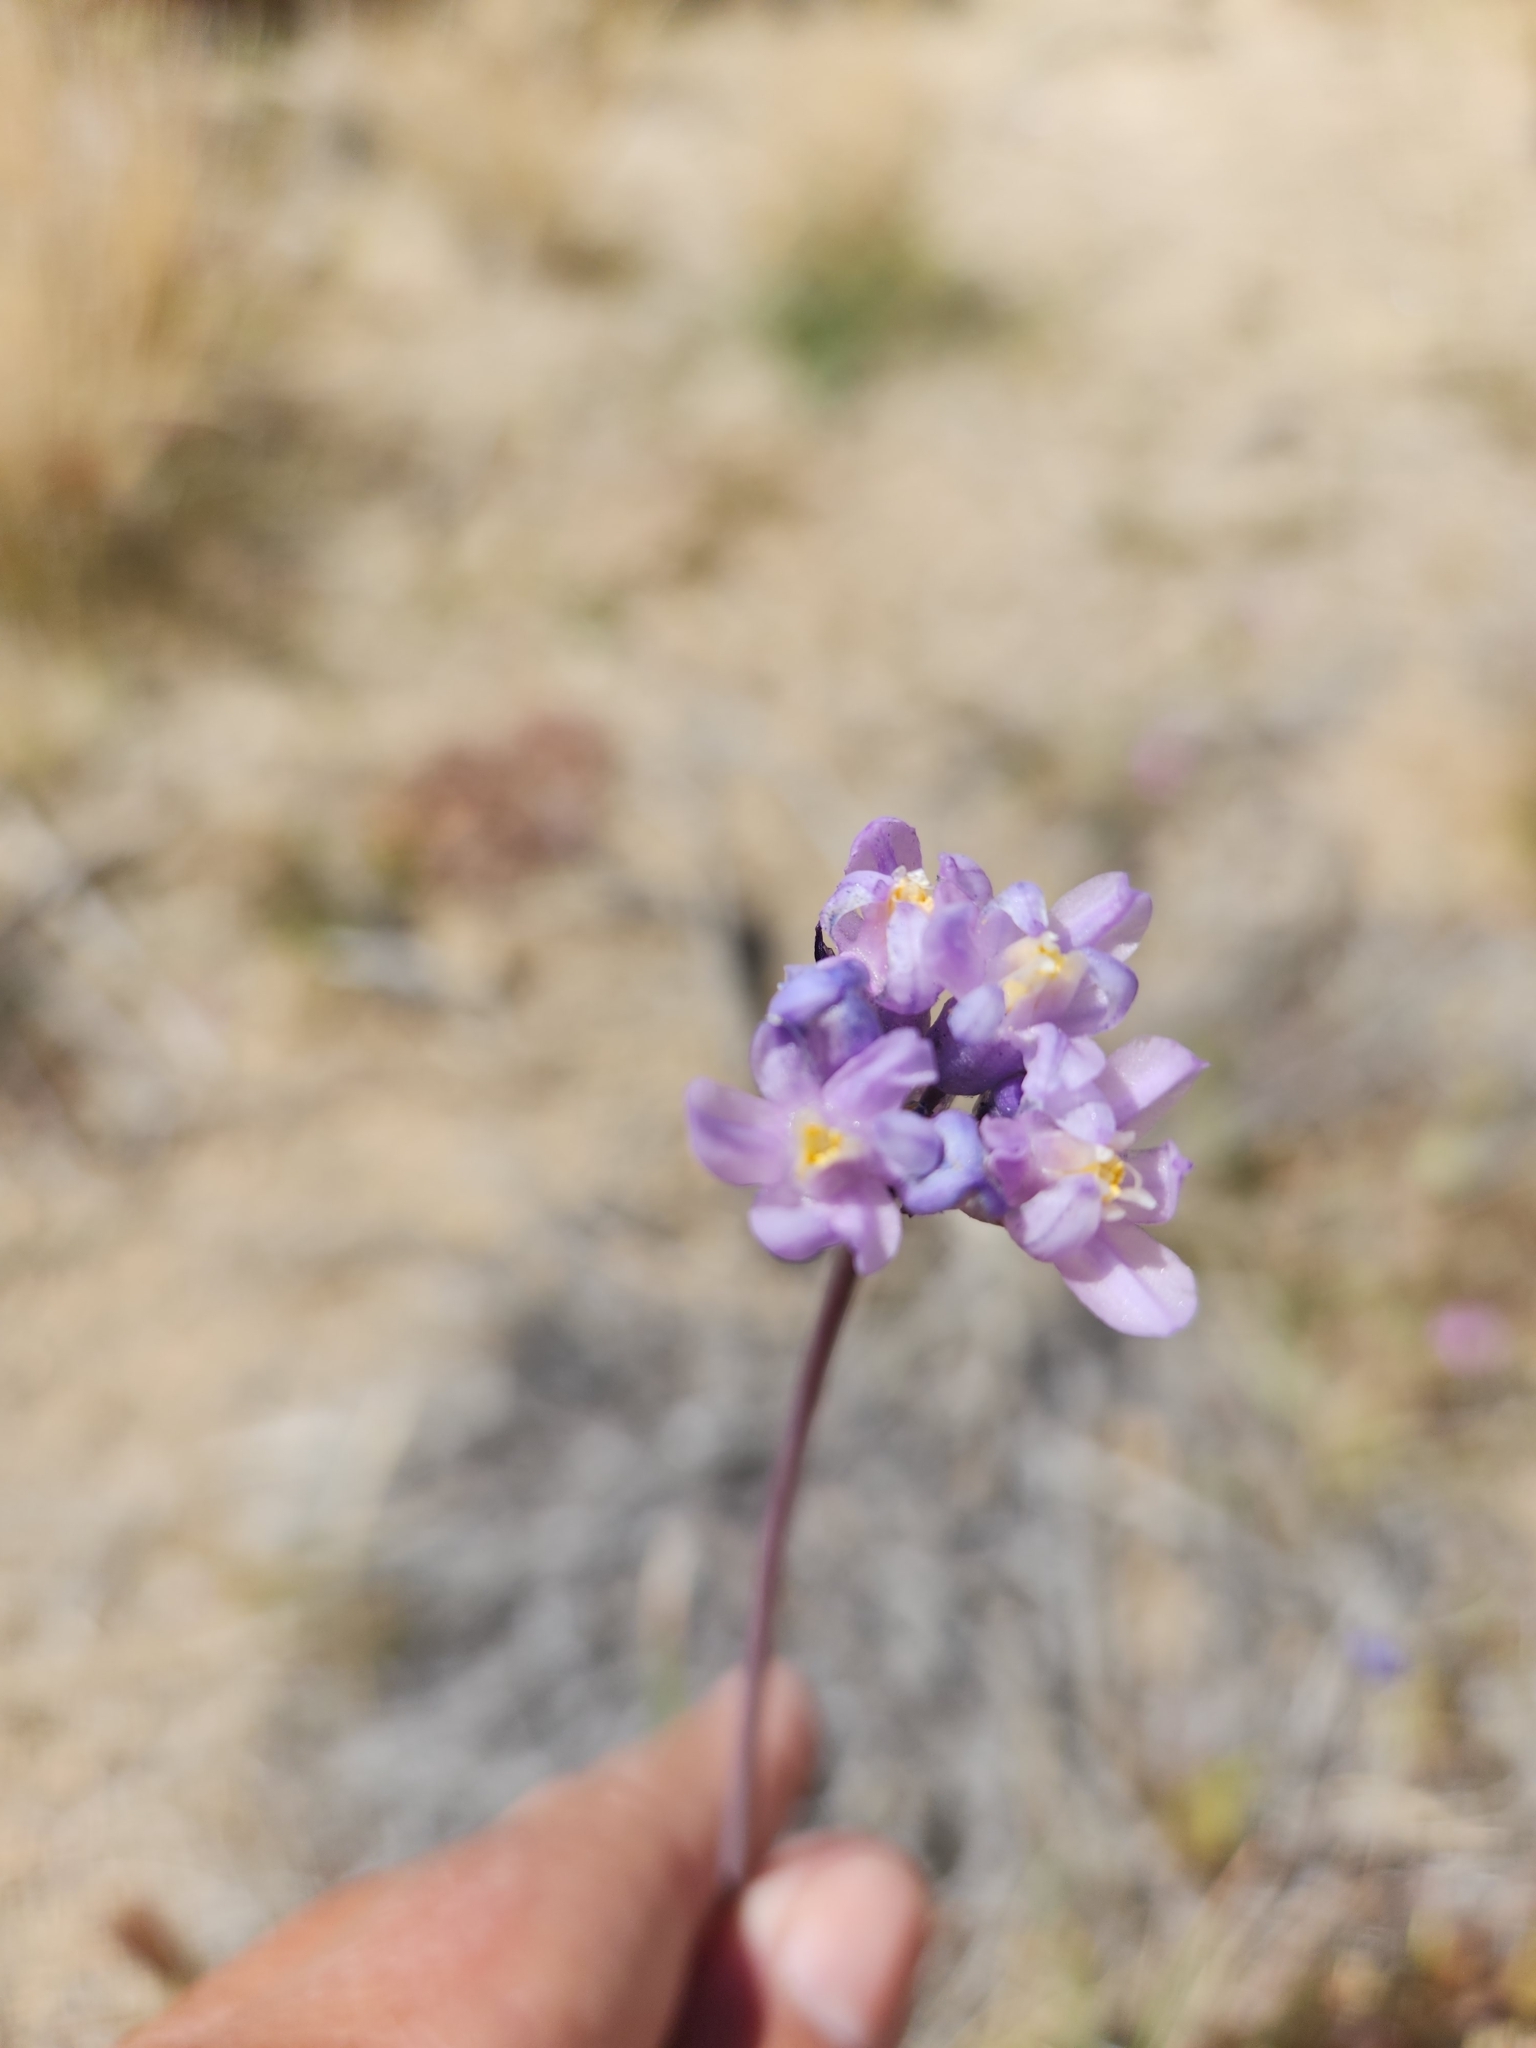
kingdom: Plantae
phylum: Tracheophyta
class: Liliopsida
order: Asparagales
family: Asparagaceae
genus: Dipterostemon
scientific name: Dipterostemon capitatus
